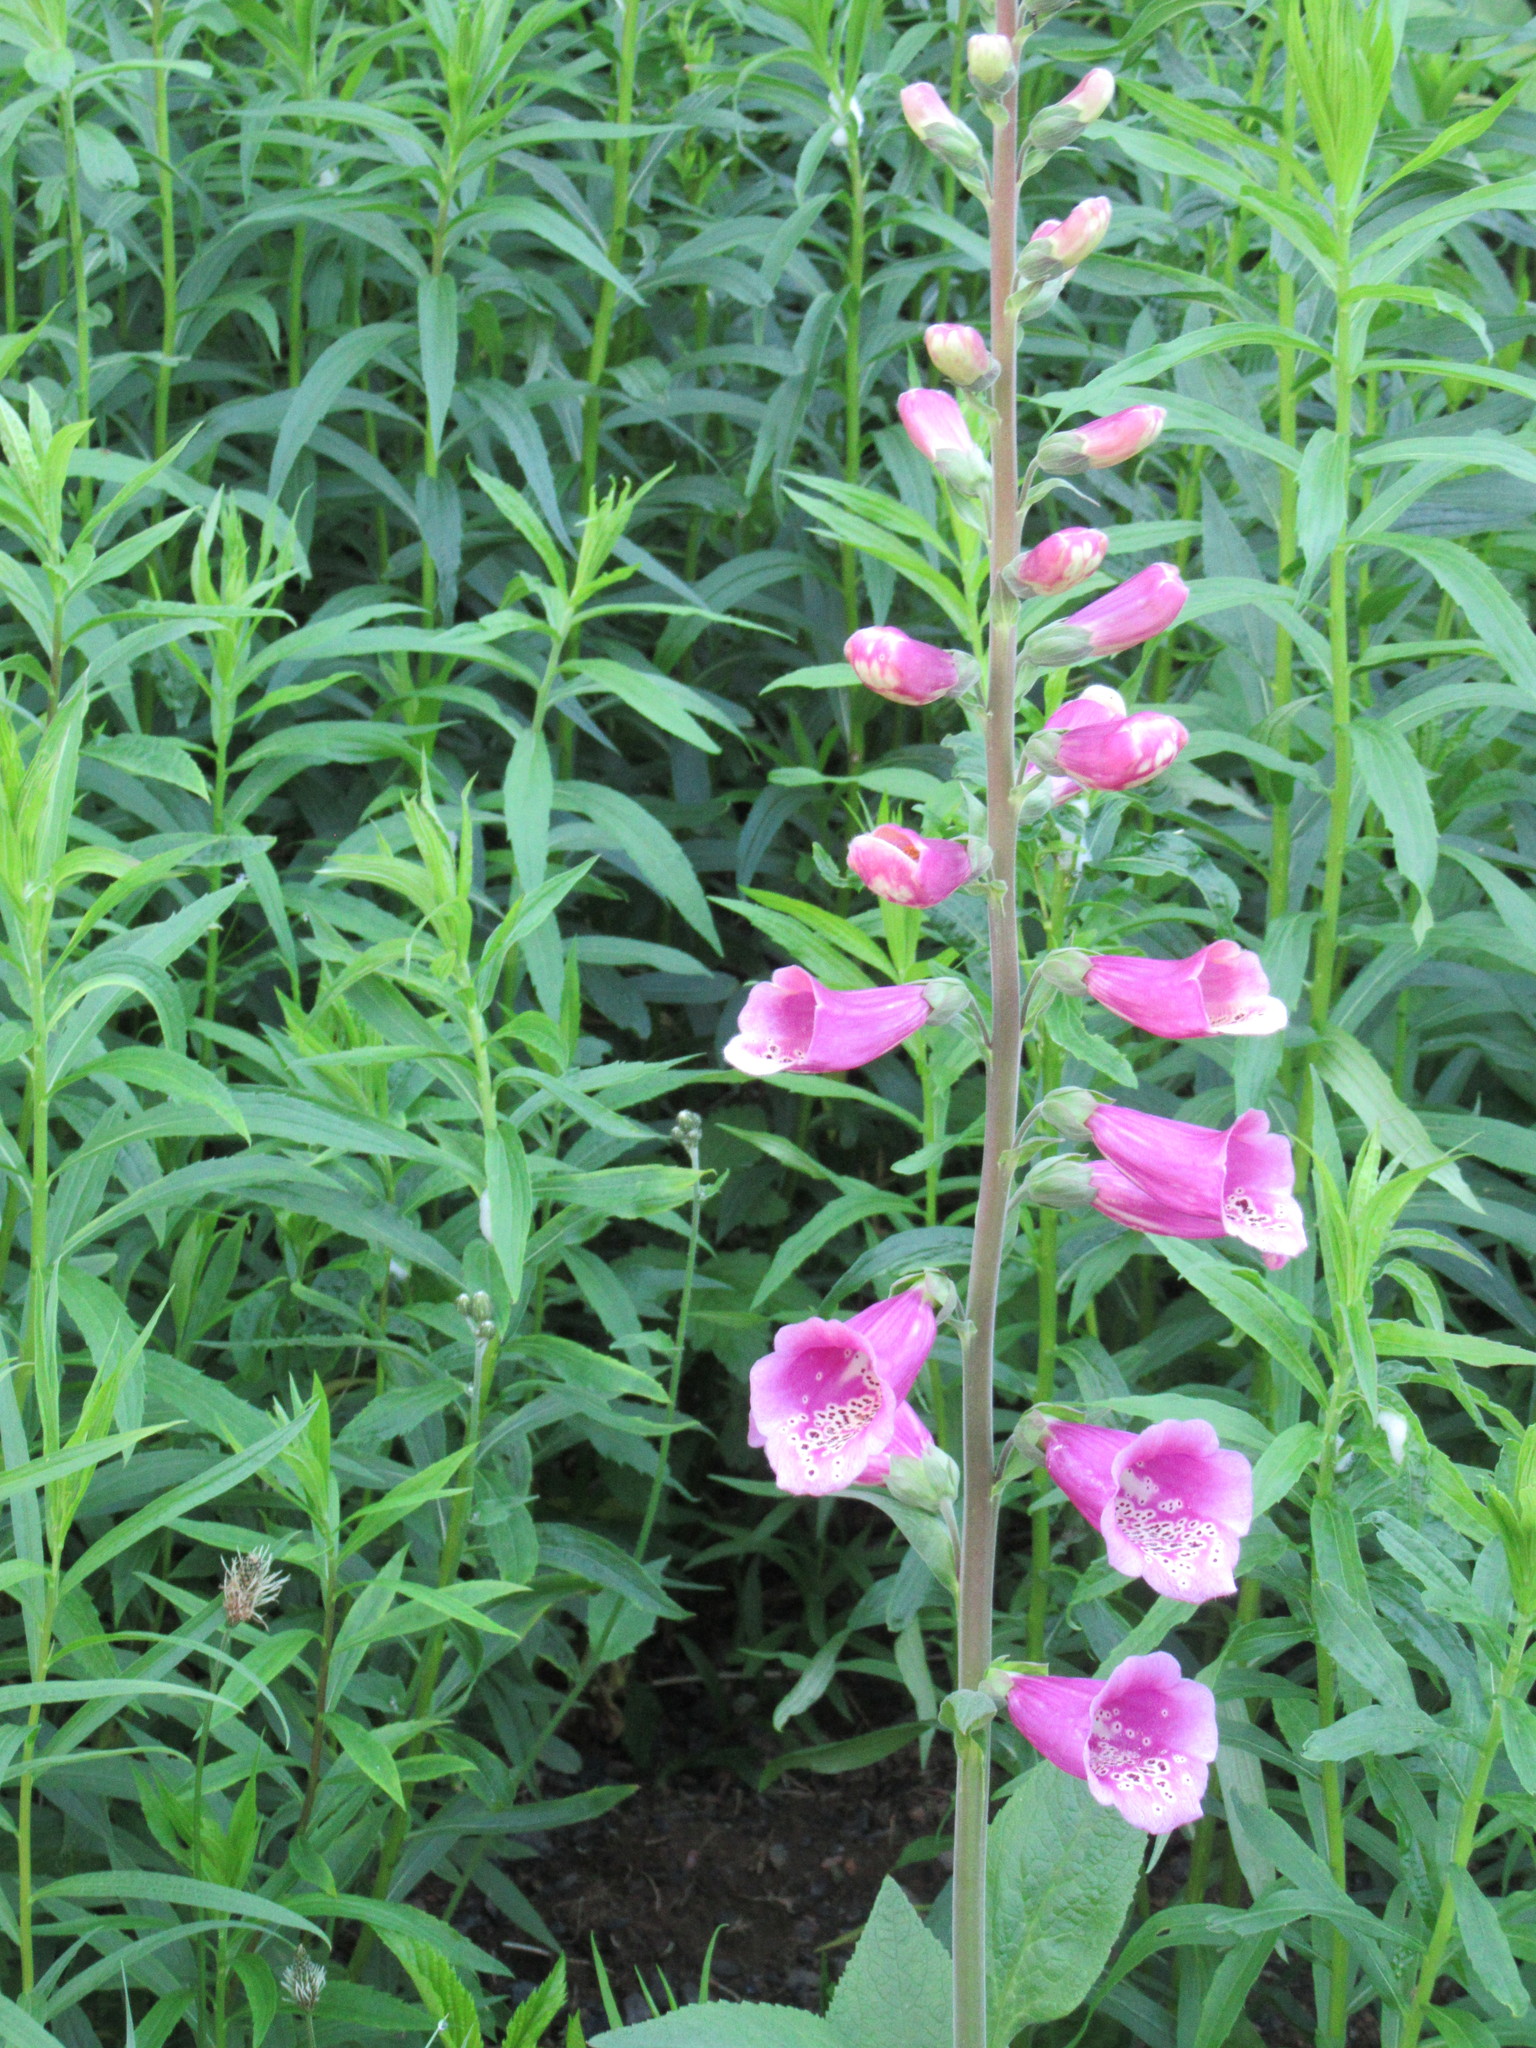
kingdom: Plantae
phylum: Tracheophyta
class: Magnoliopsida
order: Lamiales
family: Plantaginaceae
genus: Digitalis
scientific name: Digitalis purpurea
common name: Foxglove
